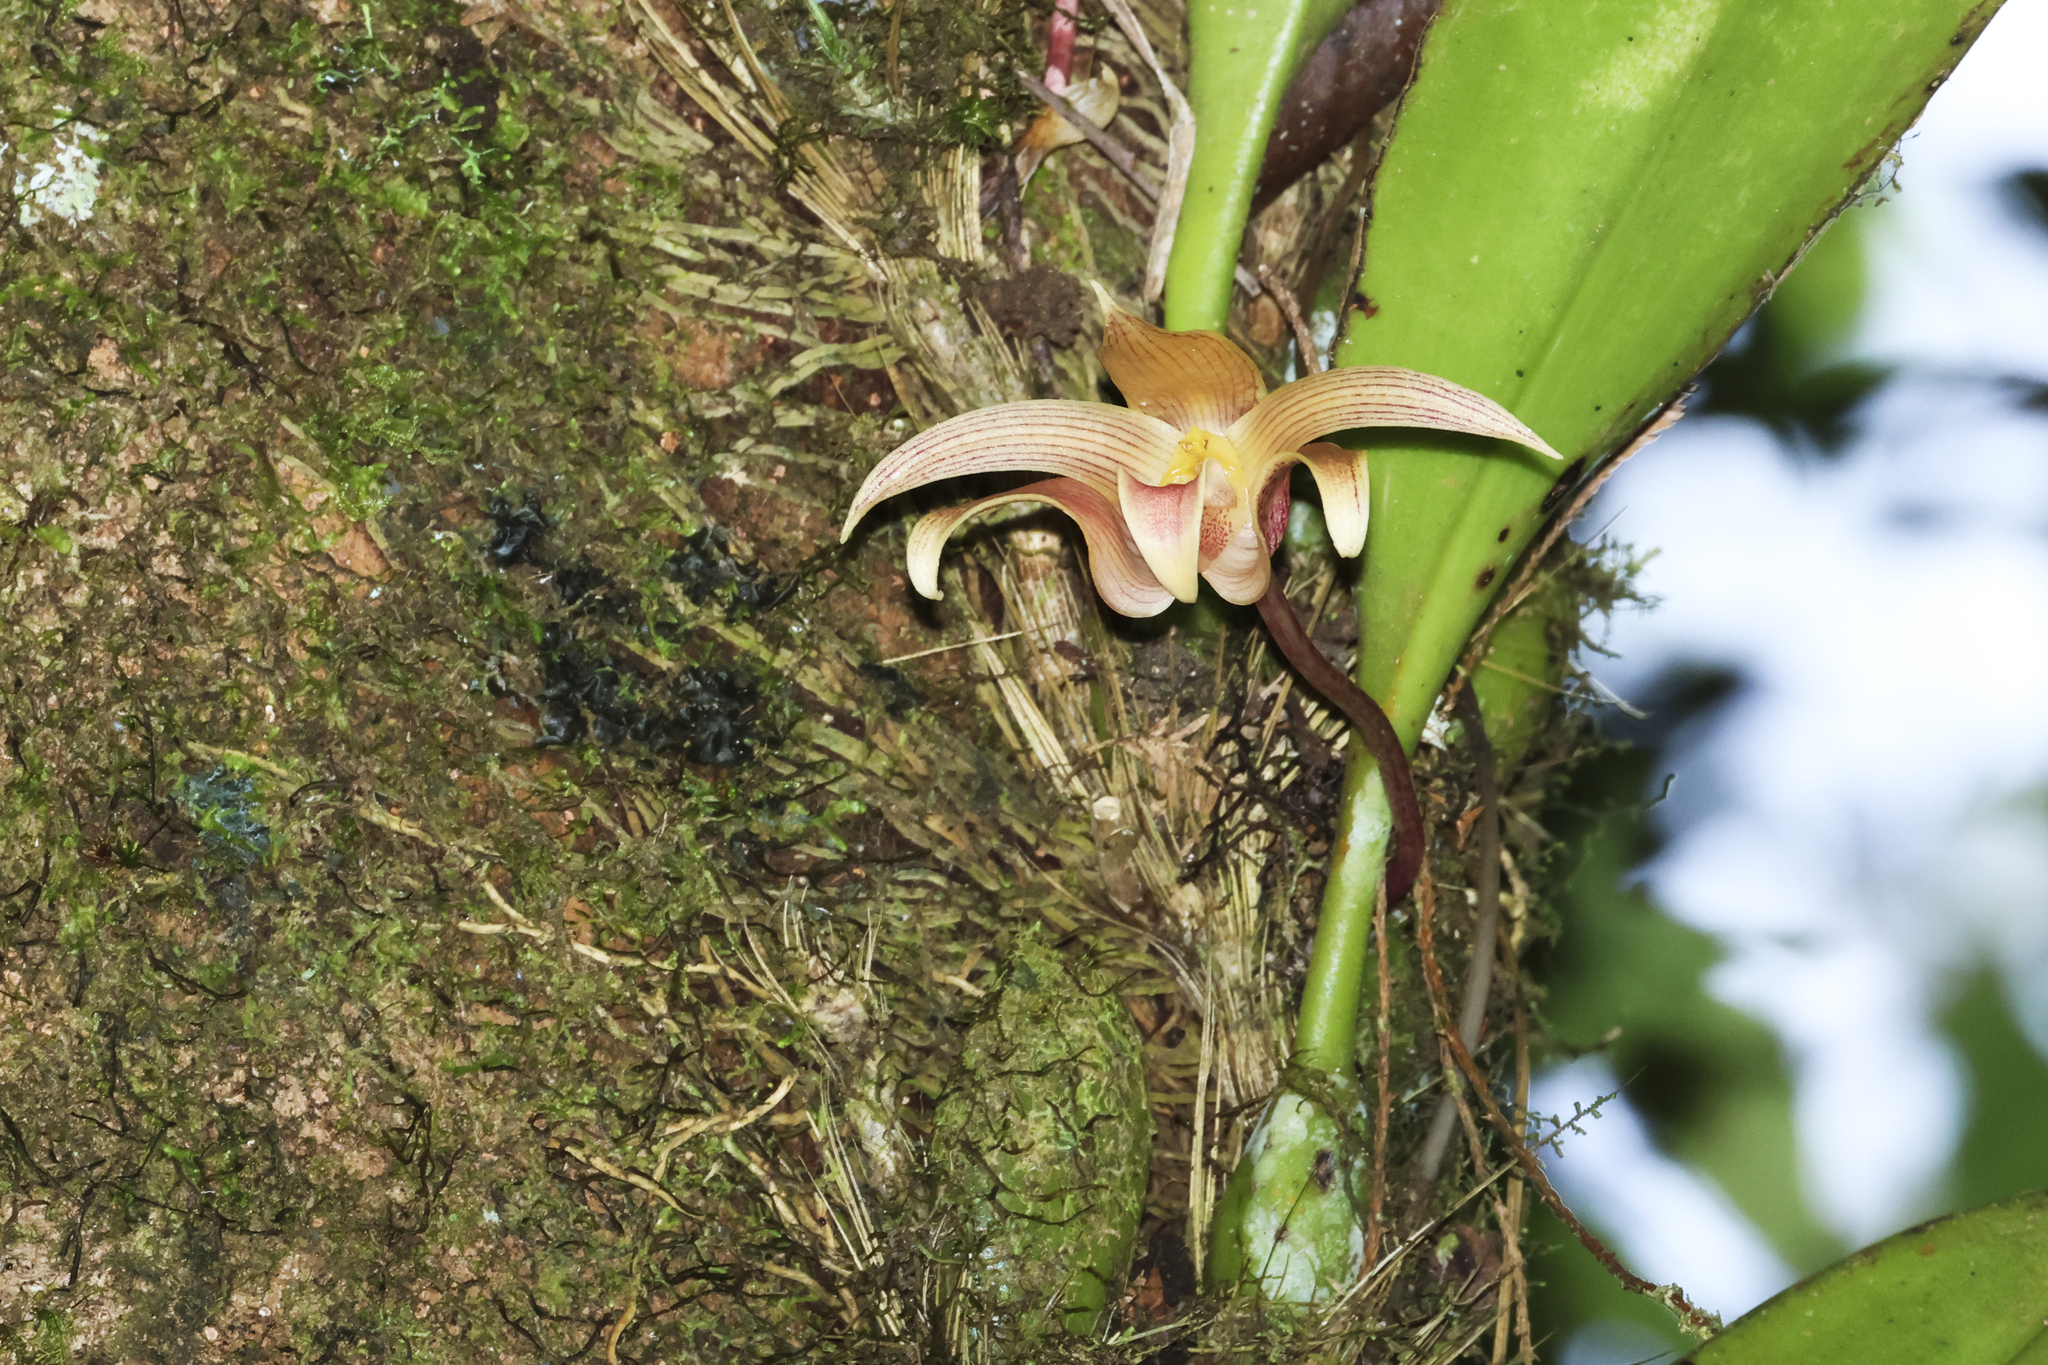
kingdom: Plantae
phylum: Tracheophyta
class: Liliopsida
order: Asparagales
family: Orchidaceae
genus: Bulbophyllum
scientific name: Bulbophyllum lobbii
